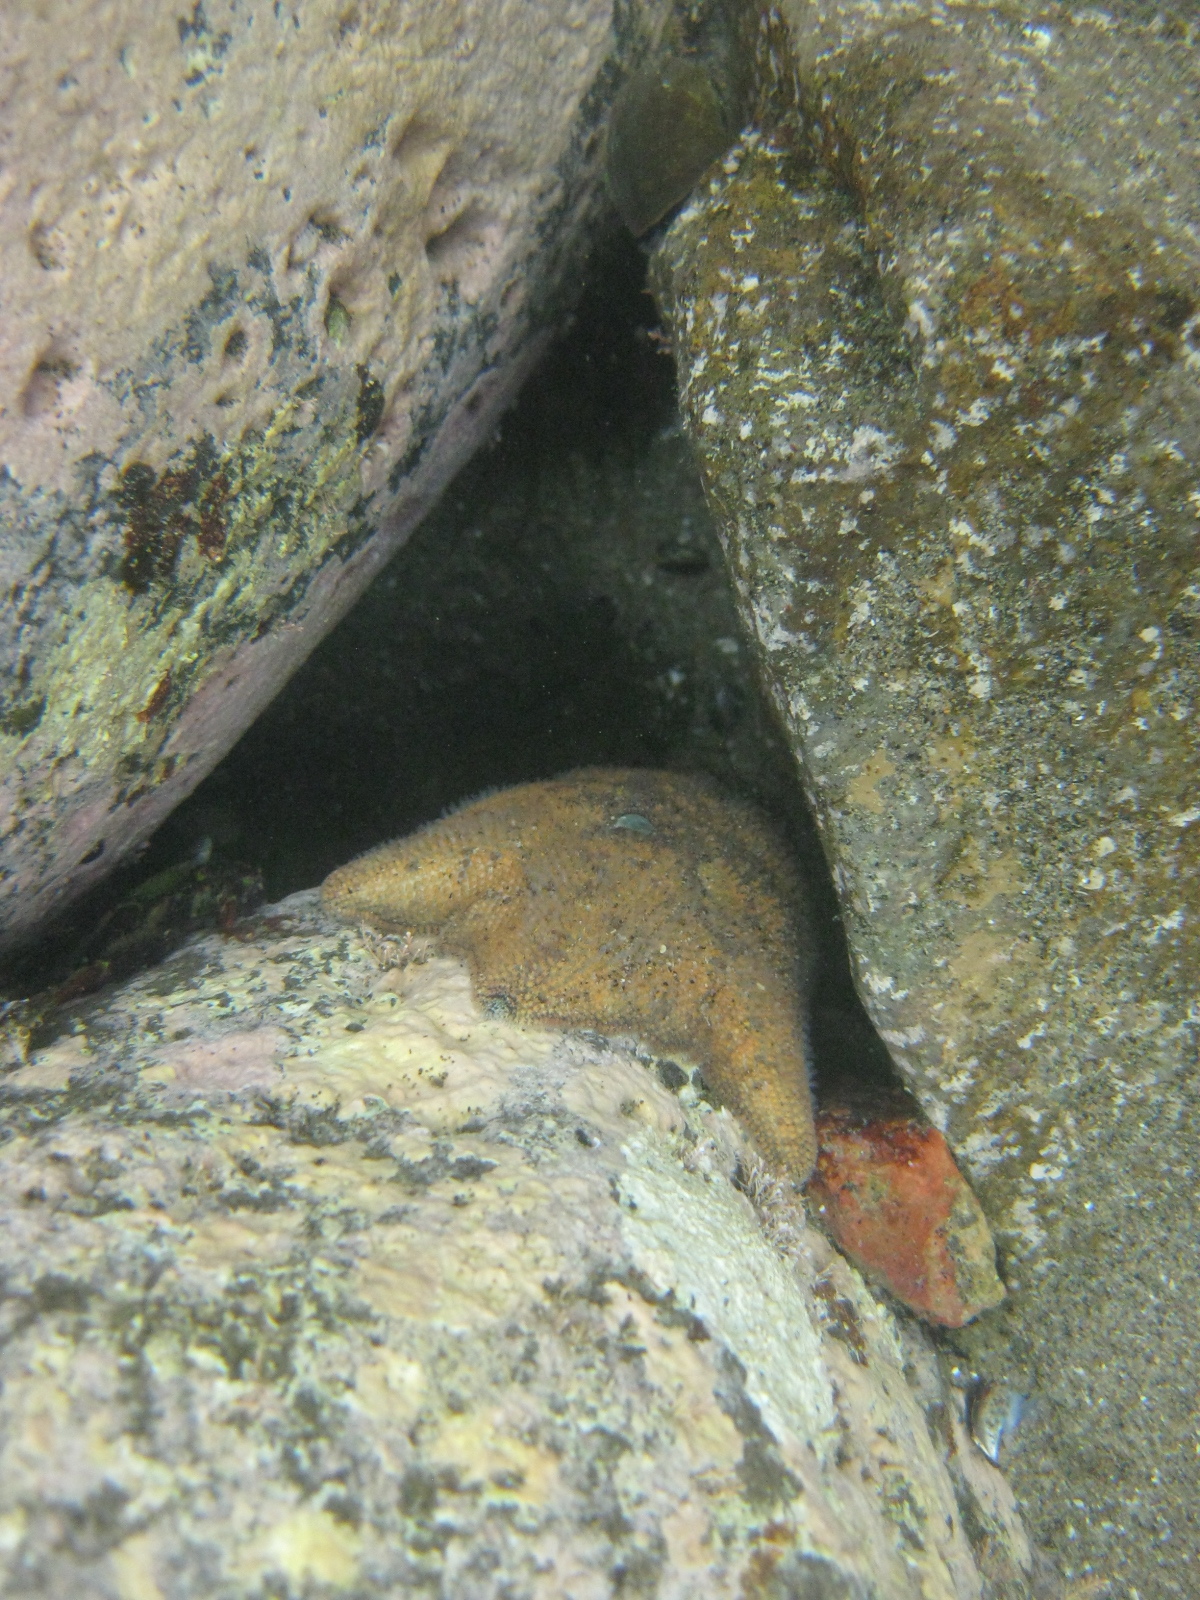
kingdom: Animalia
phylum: Echinodermata
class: Asteroidea
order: Valvatida
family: Asterinidae
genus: Patiriella
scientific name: Patiriella regularis
